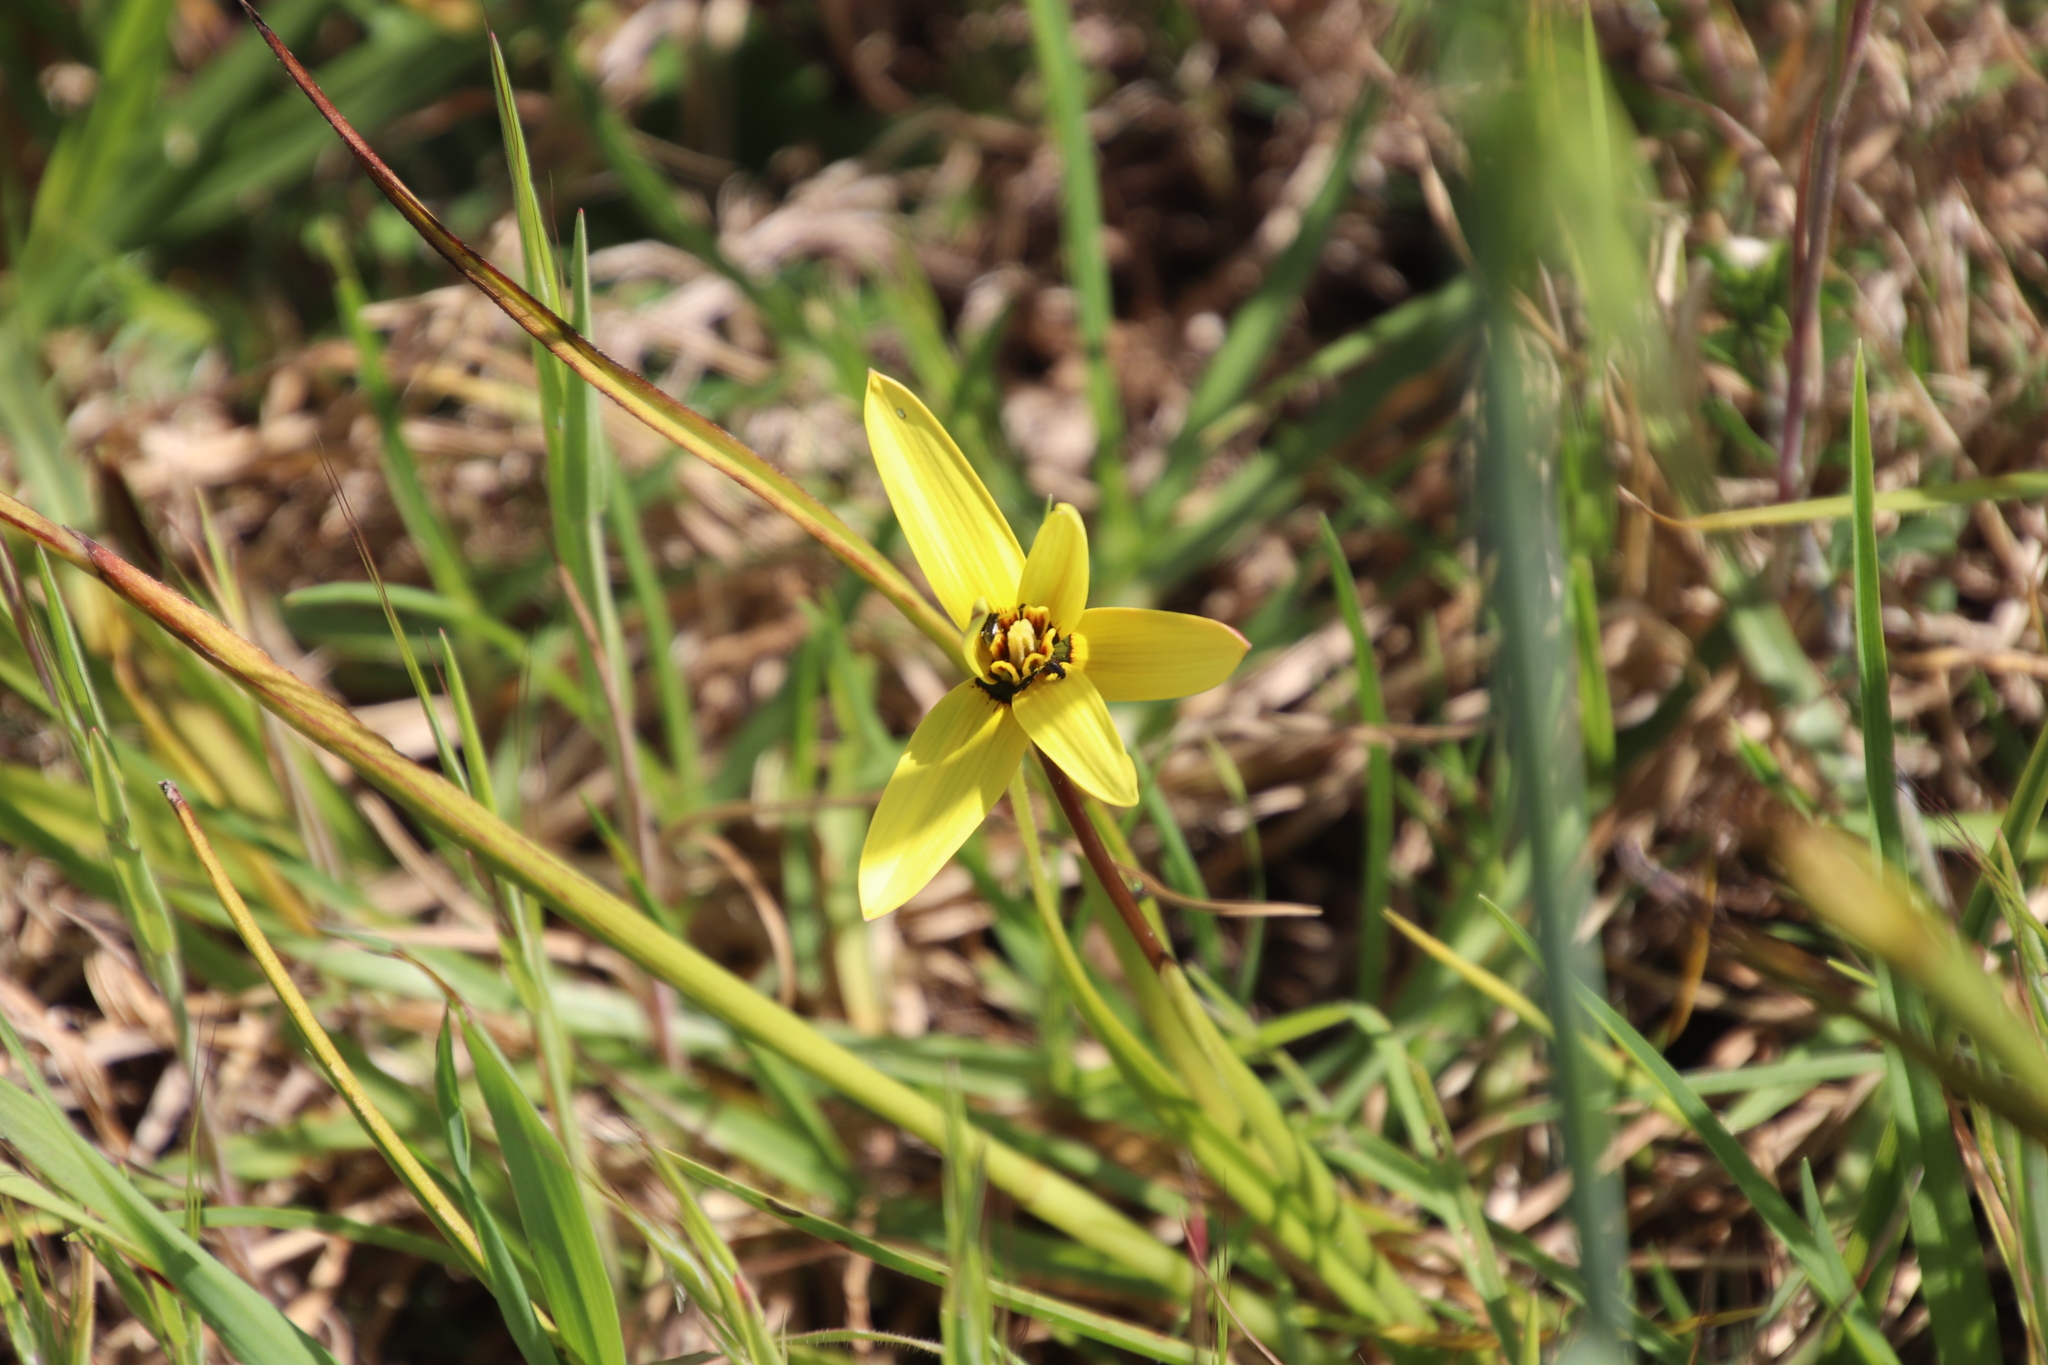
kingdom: Plantae
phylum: Tracheophyta
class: Liliopsida
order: Asparagales
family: Hypoxidaceae
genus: Pauridia
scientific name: Pauridia capensis
